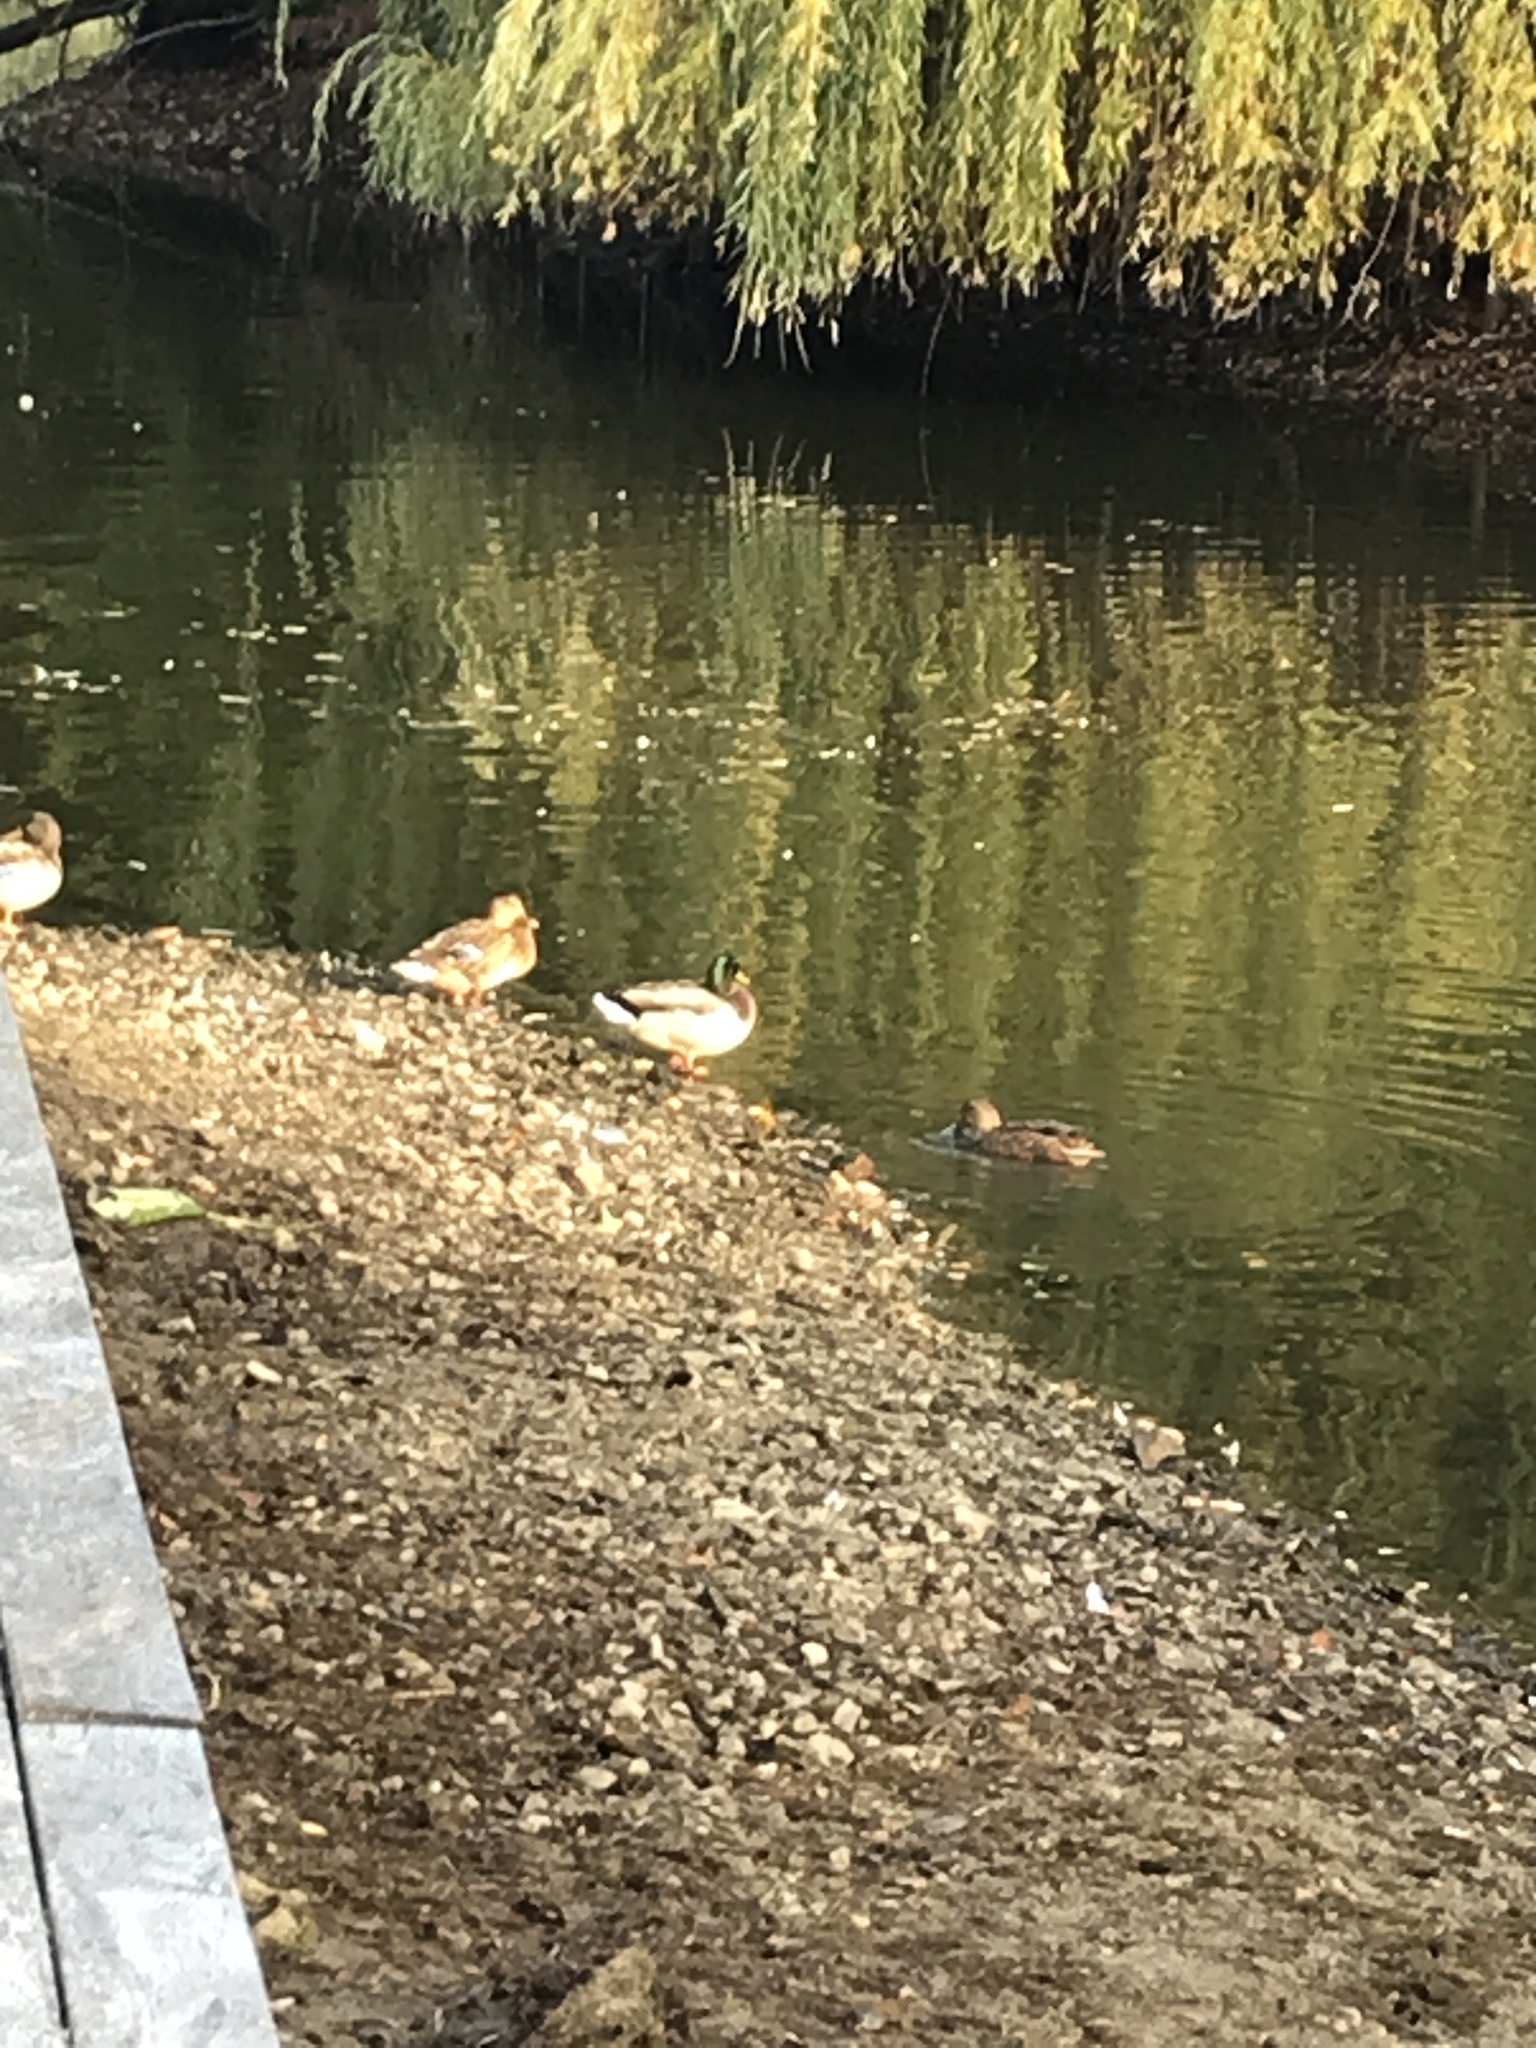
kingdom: Animalia
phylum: Chordata
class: Aves
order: Anseriformes
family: Anatidae
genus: Anas
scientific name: Anas platyrhynchos
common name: Mallard
